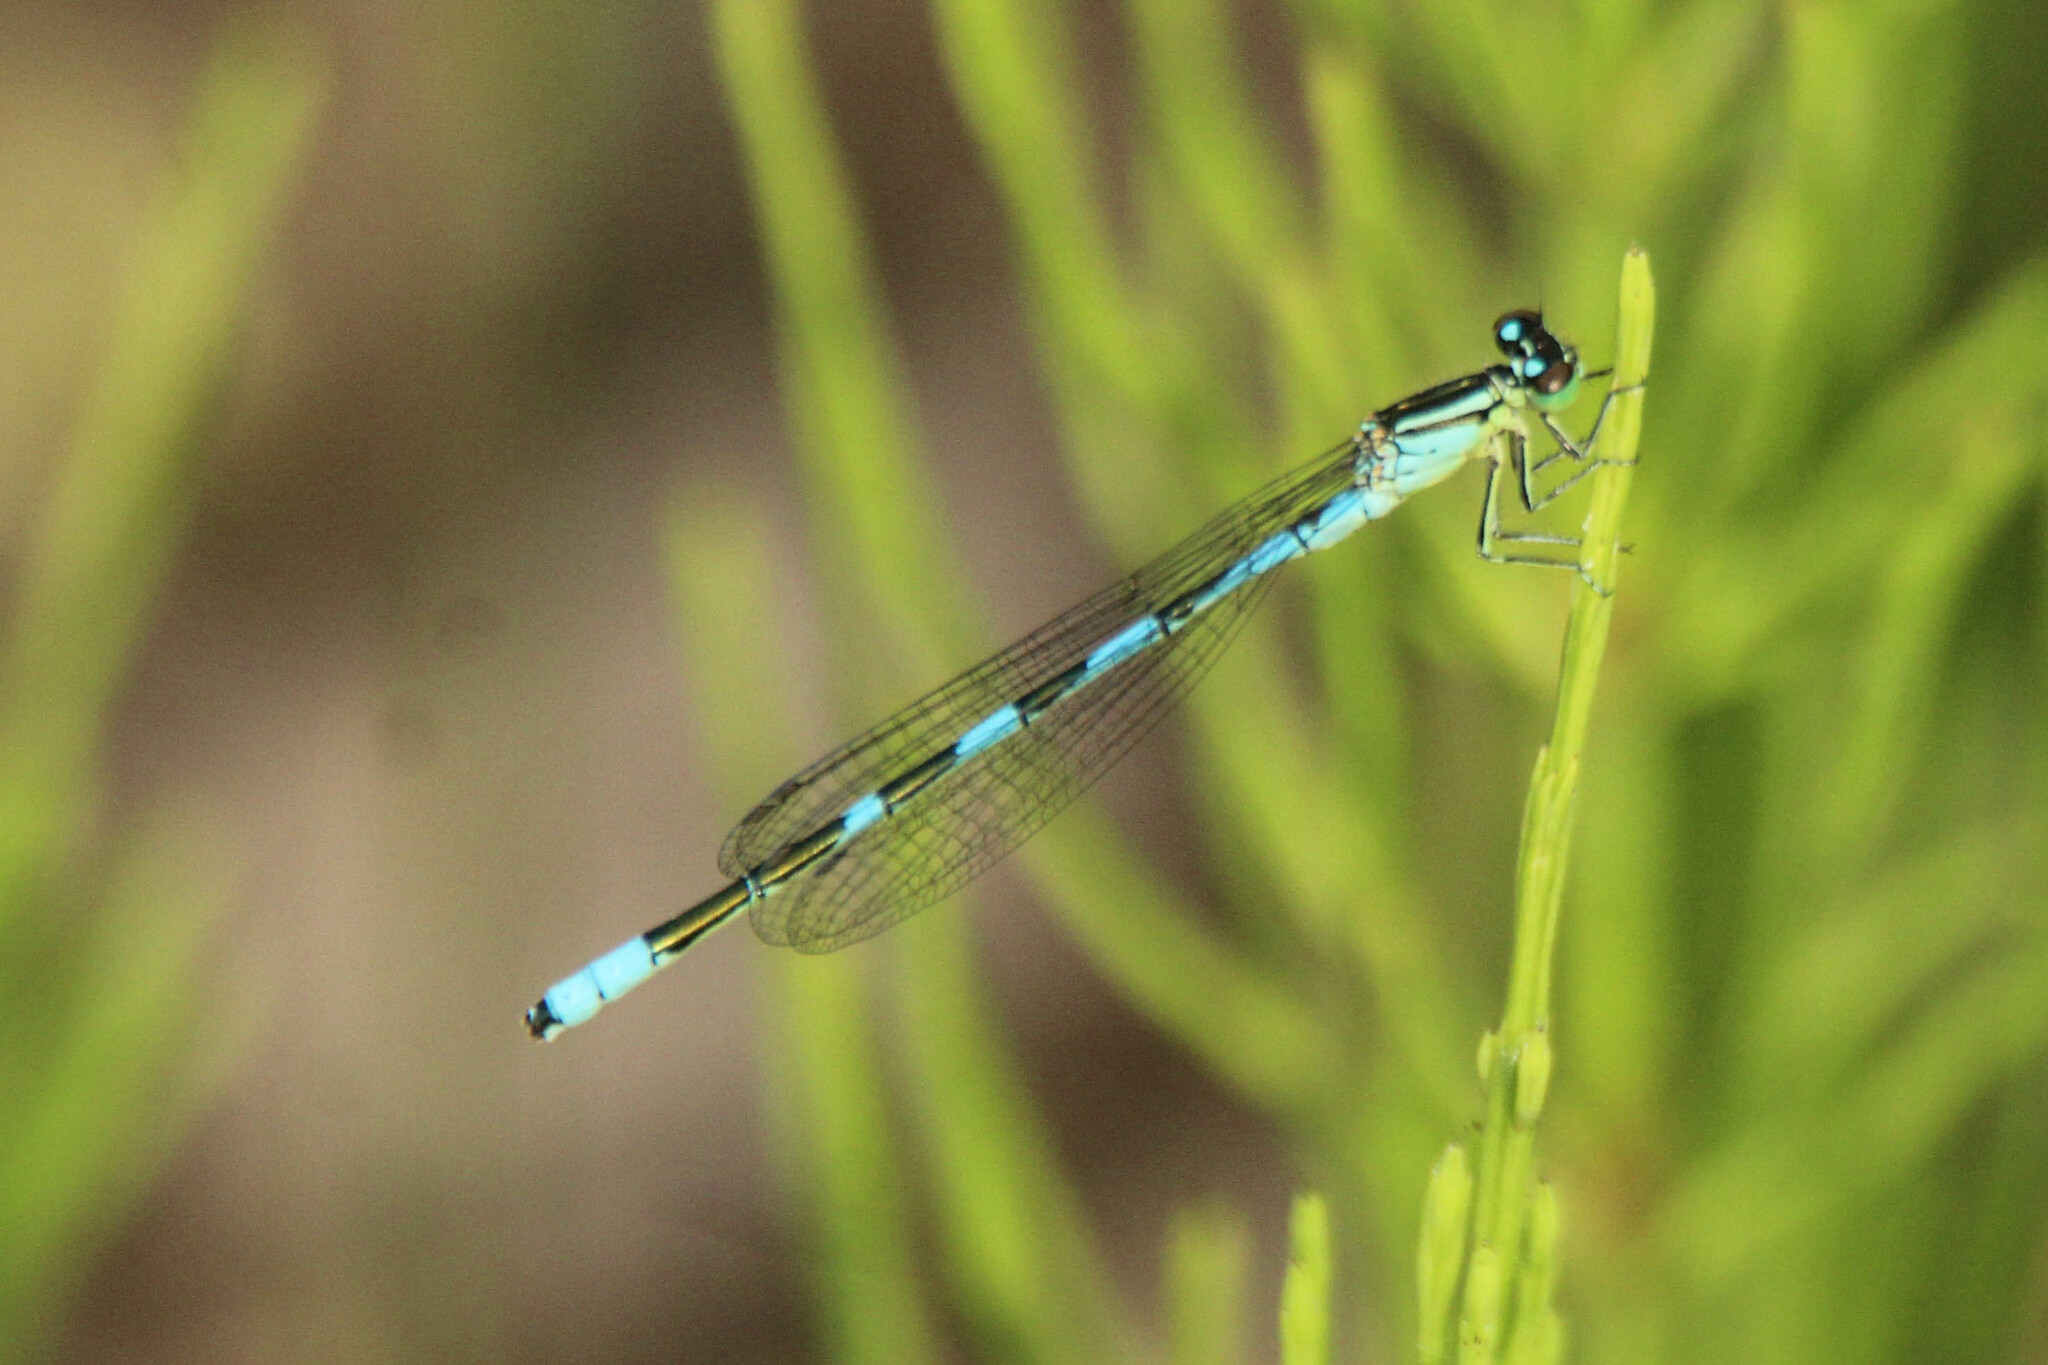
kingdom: Animalia
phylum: Arthropoda
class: Insecta
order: Odonata
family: Coenagrionidae
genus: Coenagrion
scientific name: Coenagrion lanceolatum
